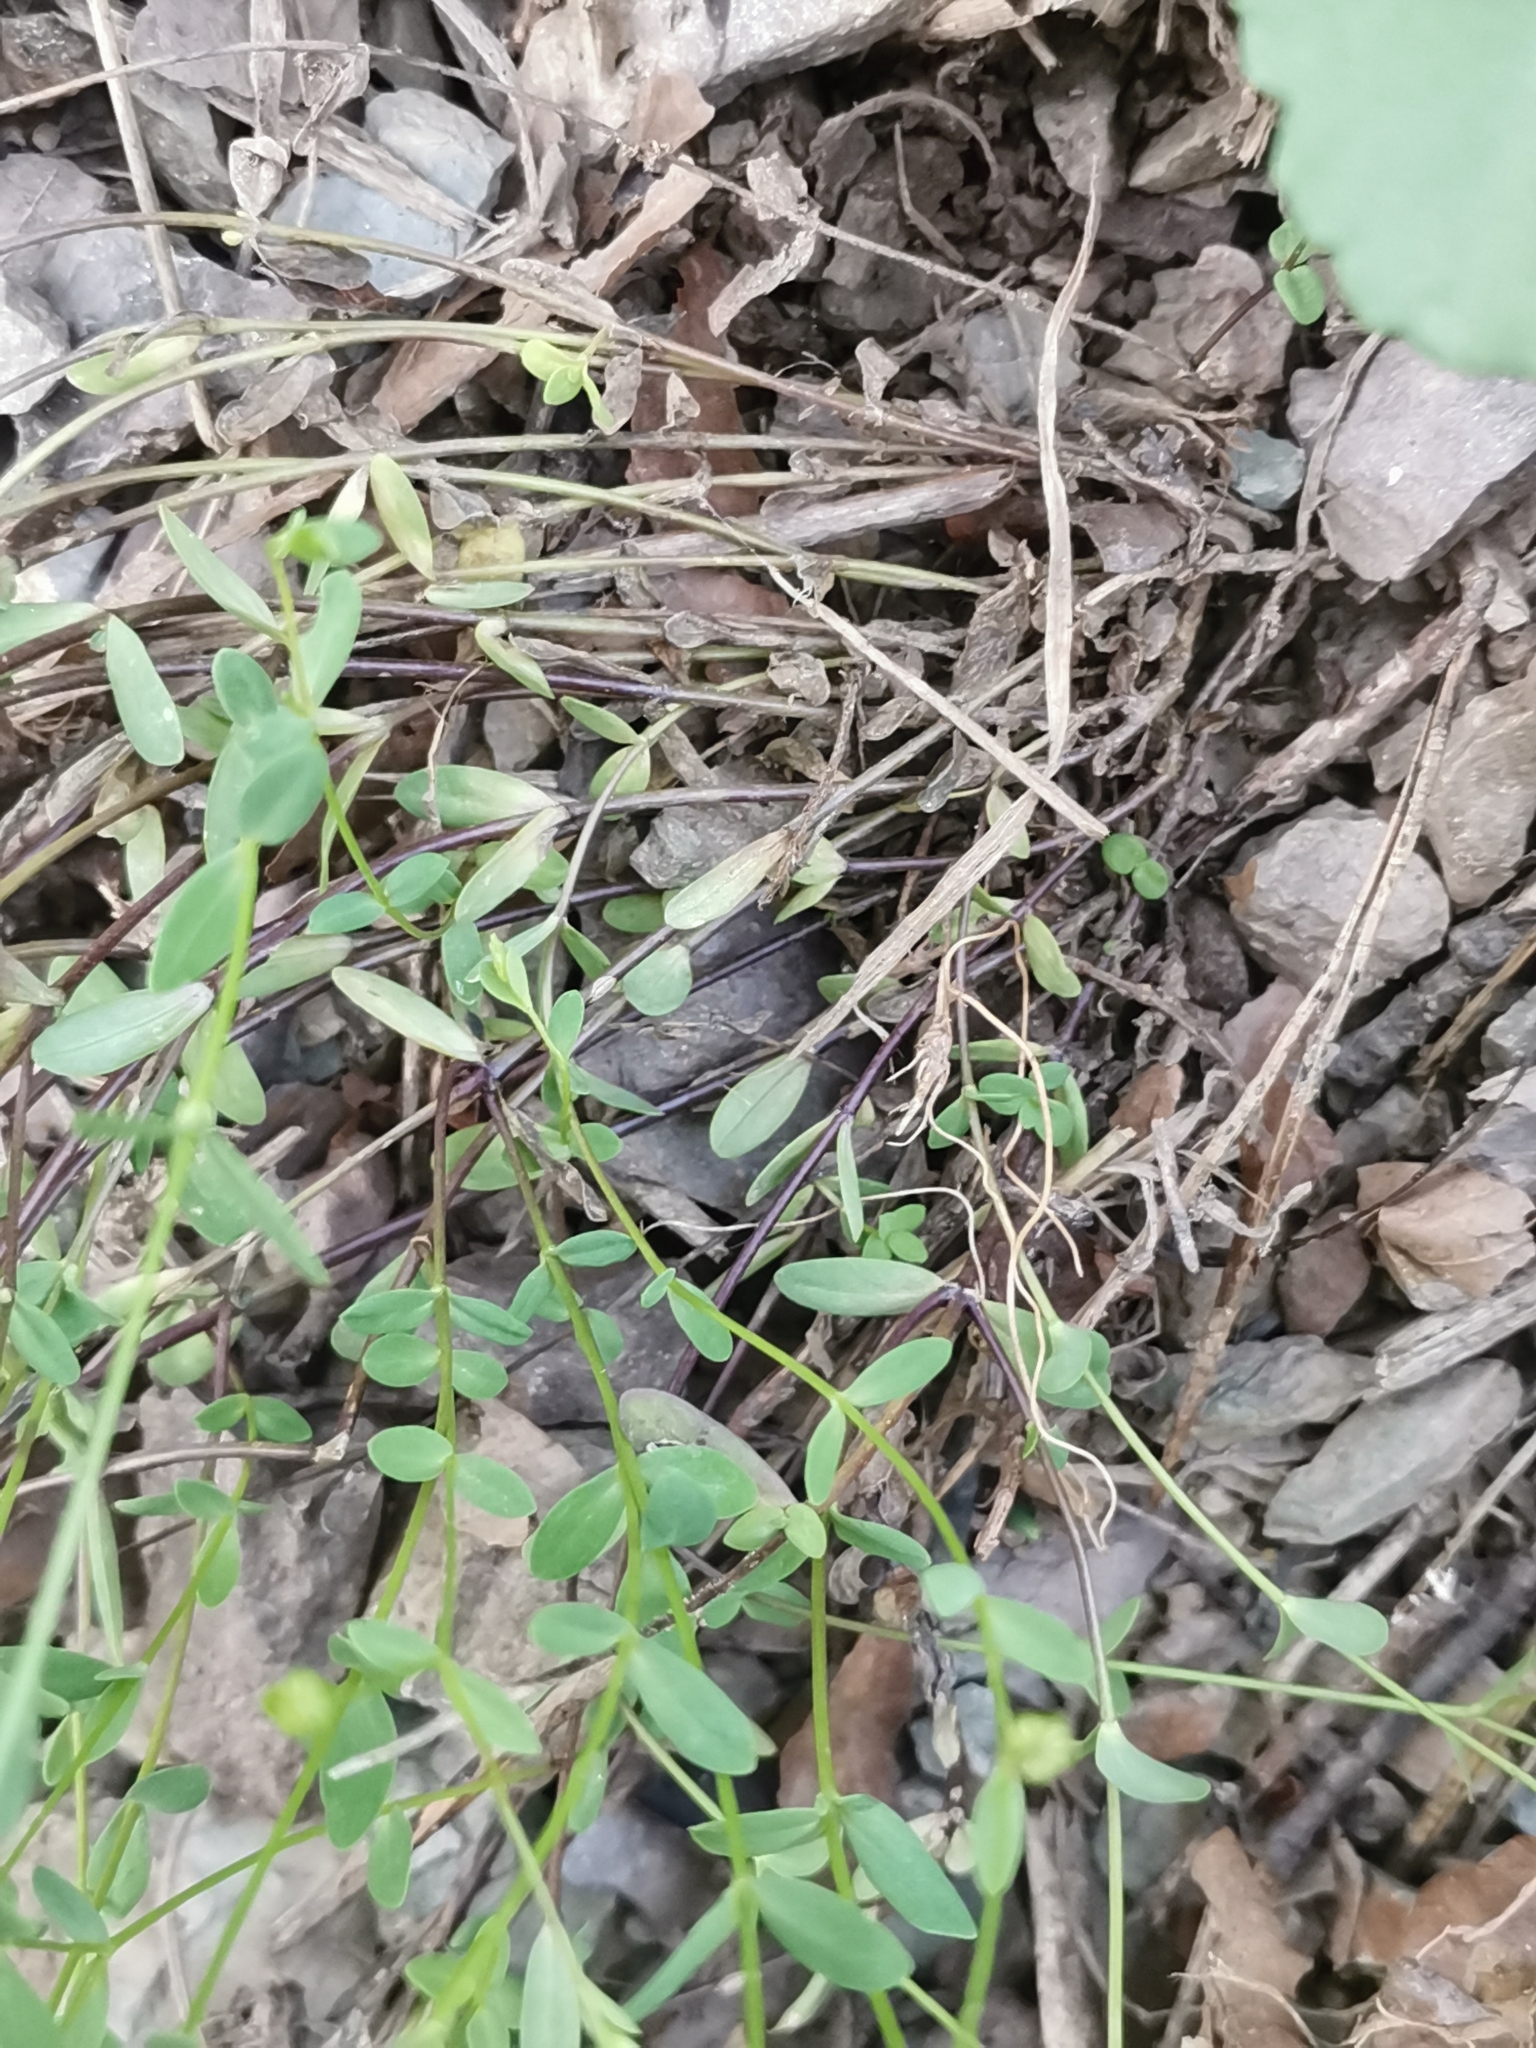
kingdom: Plantae
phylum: Tracheophyta
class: Magnoliopsida
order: Malpighiales
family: Linaceae
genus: Linum
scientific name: Linum catharticum
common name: Fairy flax
